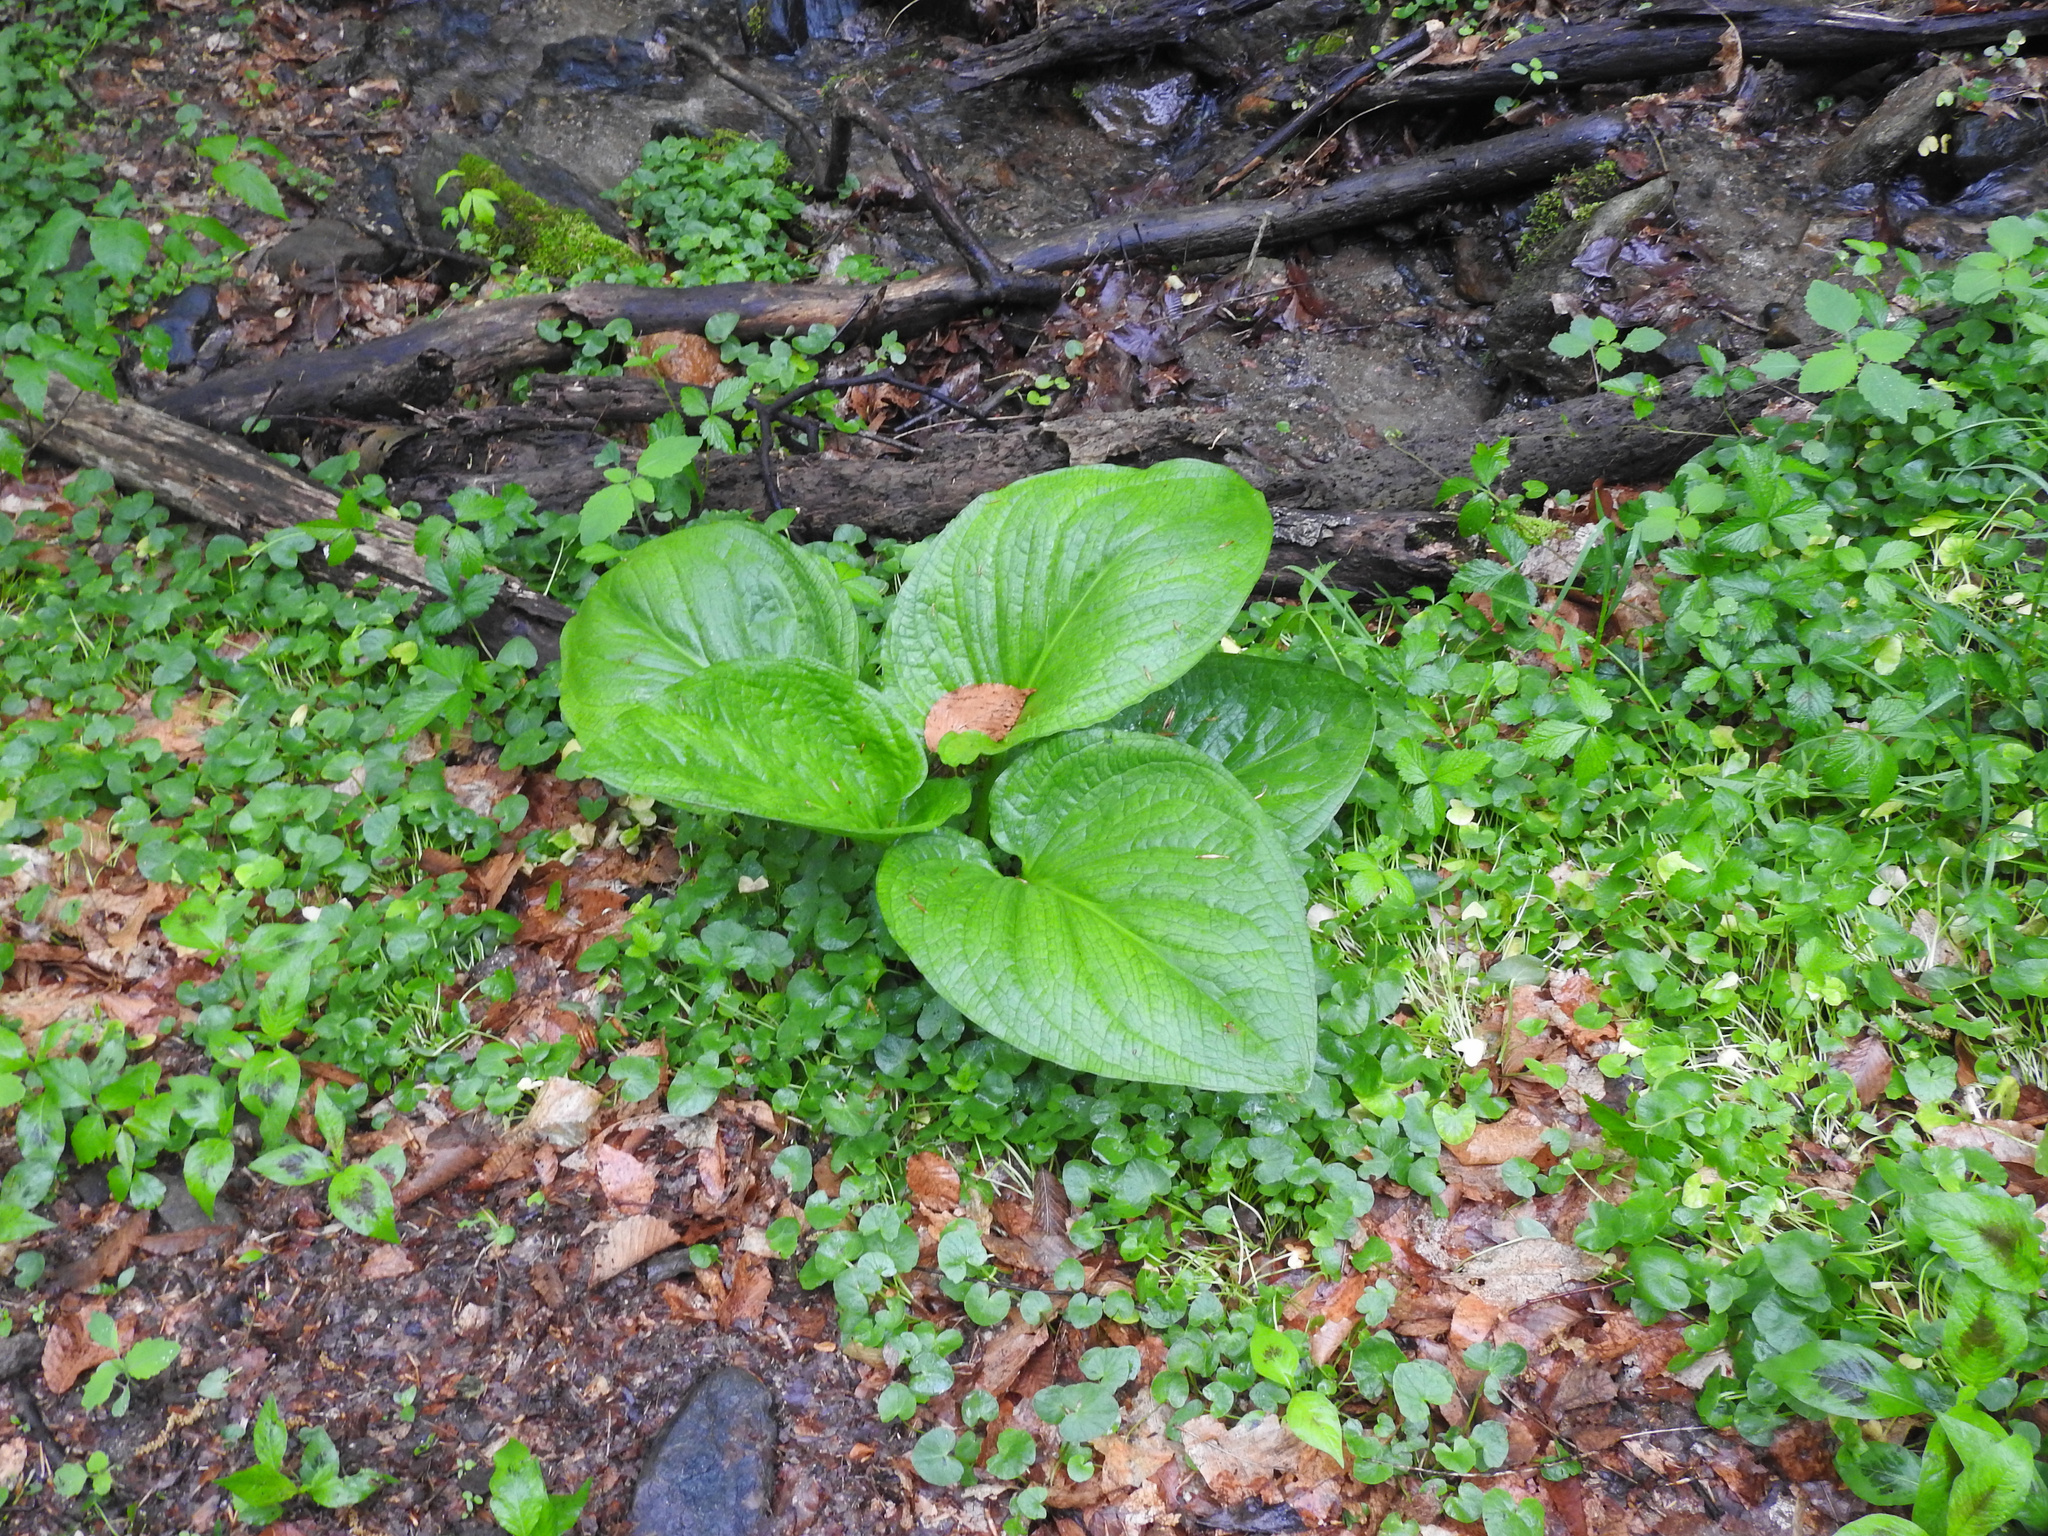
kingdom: Plantae
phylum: Tracheophyta
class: Liliopsida
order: Alismatales
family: Araceae
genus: Symplocarpus
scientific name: Symplocarpus foetidus
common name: Eastern skunk cabbage
